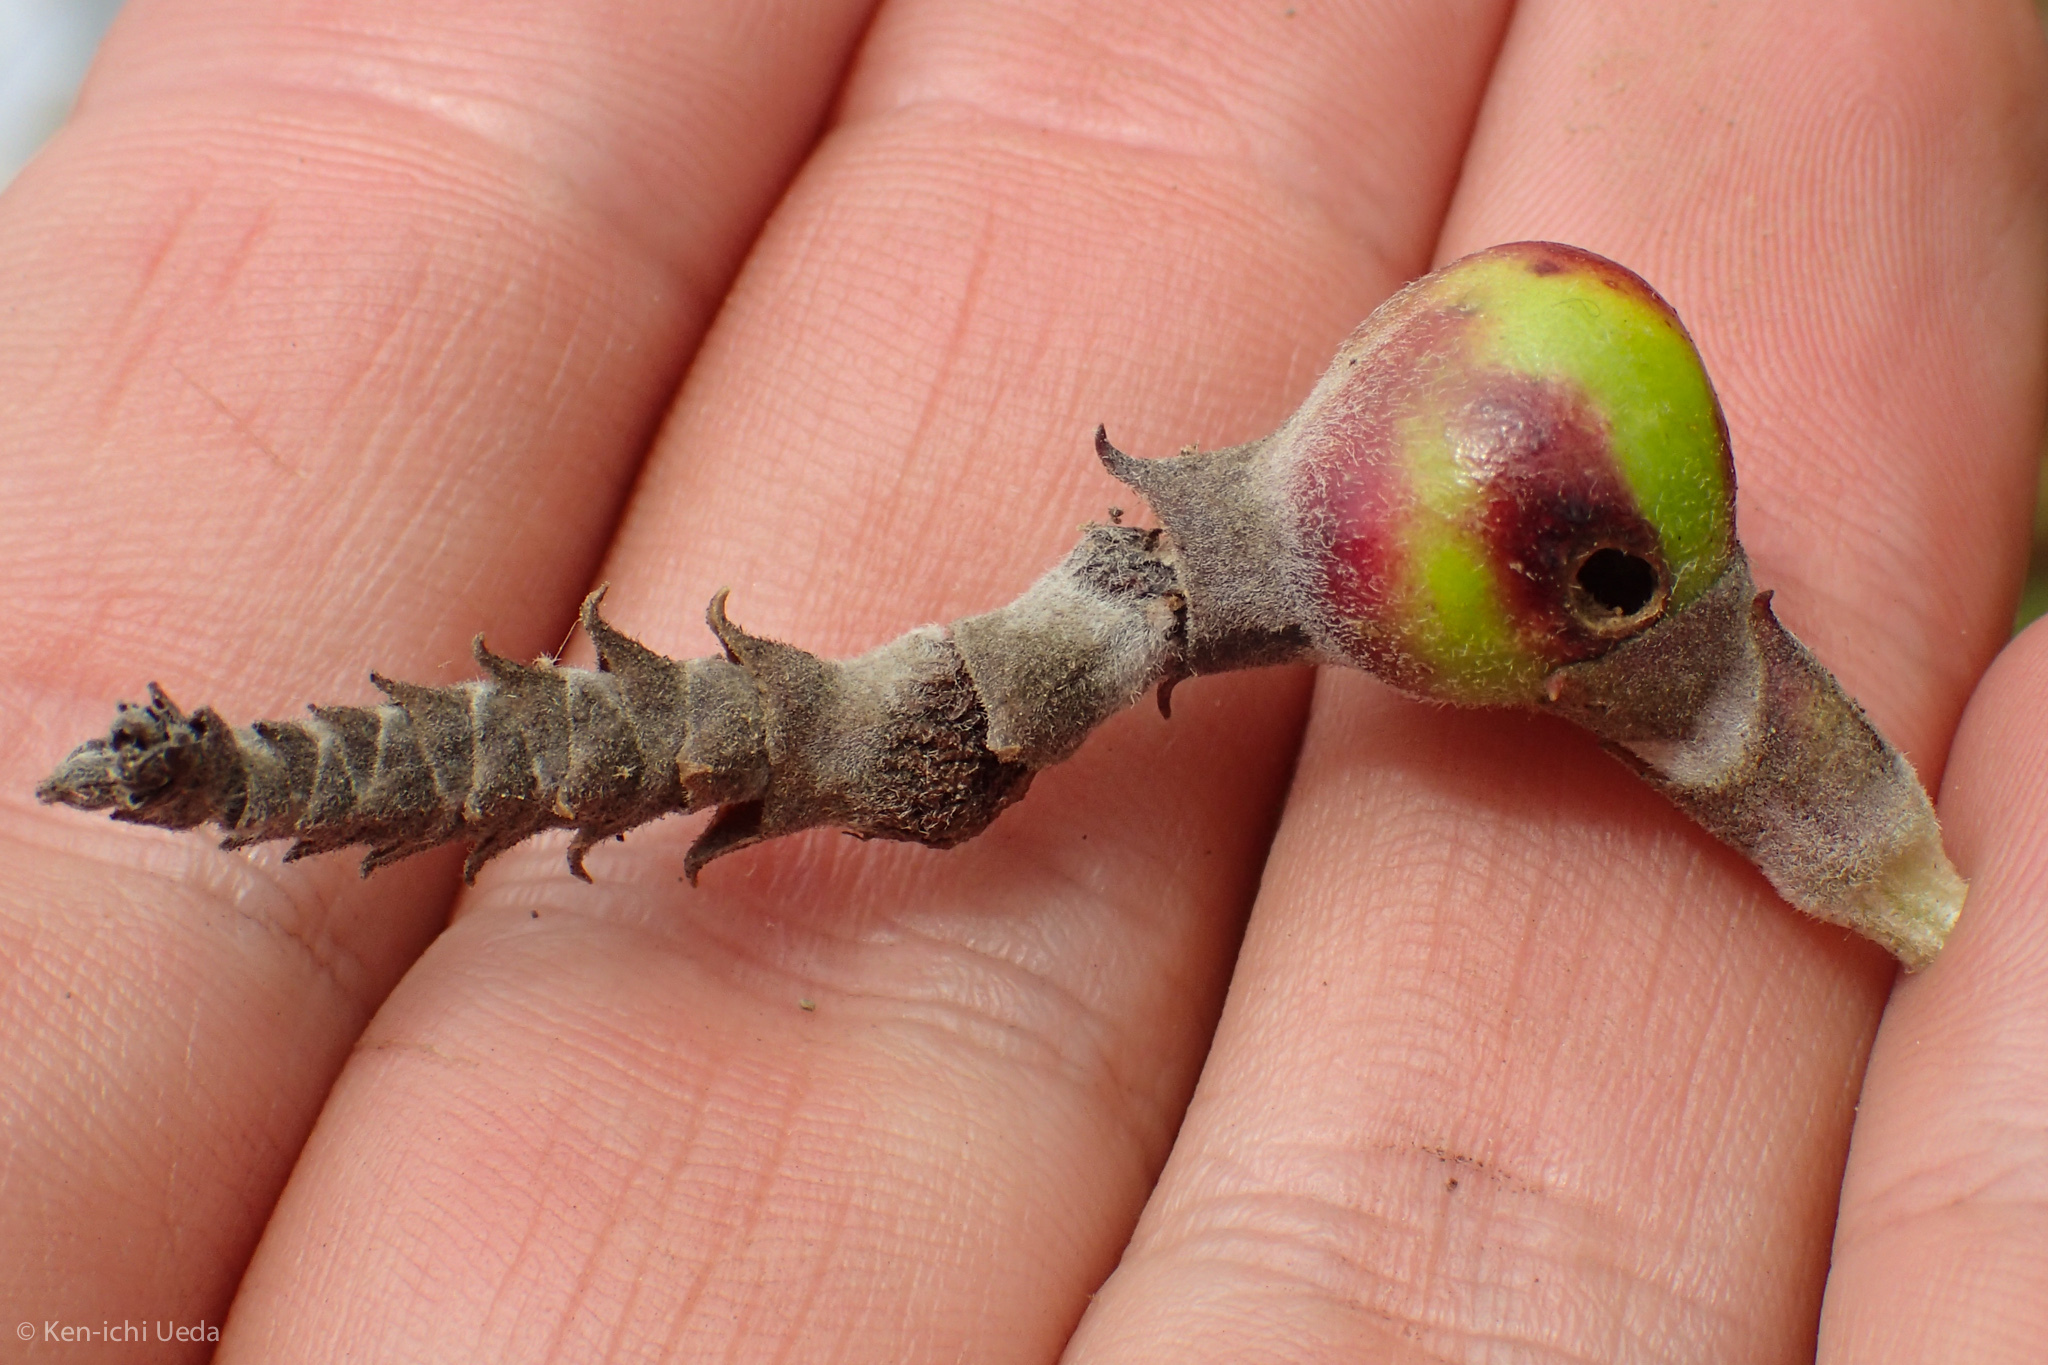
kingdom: Animalia
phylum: Arthropoda
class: Insecta
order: Diptera
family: Cecidomyiidae
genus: Asphondylia
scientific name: Asphondylia garryae
